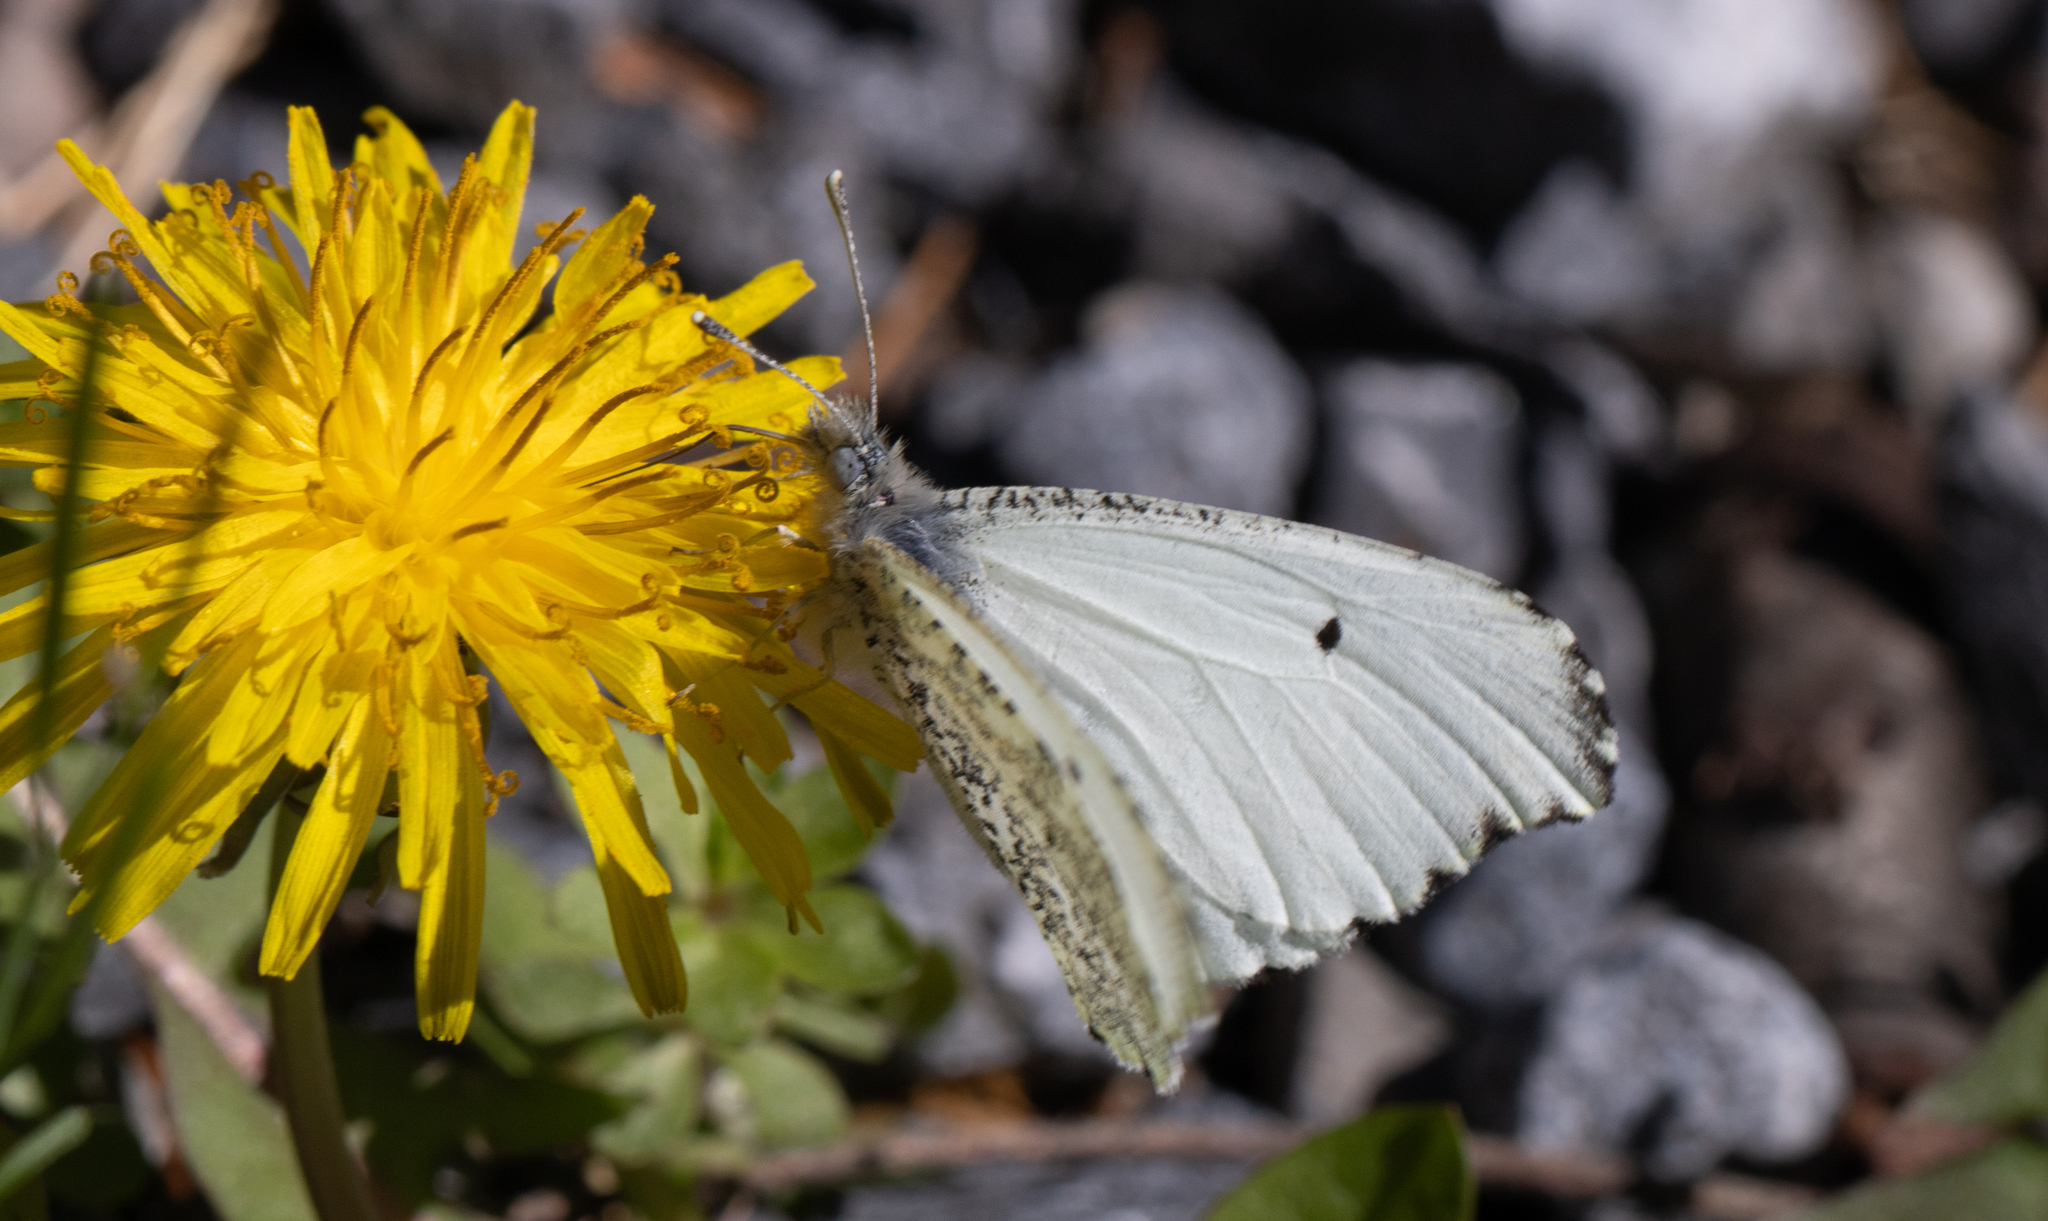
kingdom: Animalia
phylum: Arthropoda
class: Insecta
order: Lepidoptera
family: Pieridae
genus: Anthocharis
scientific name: Anthocharis midea
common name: Falcate orangetip
